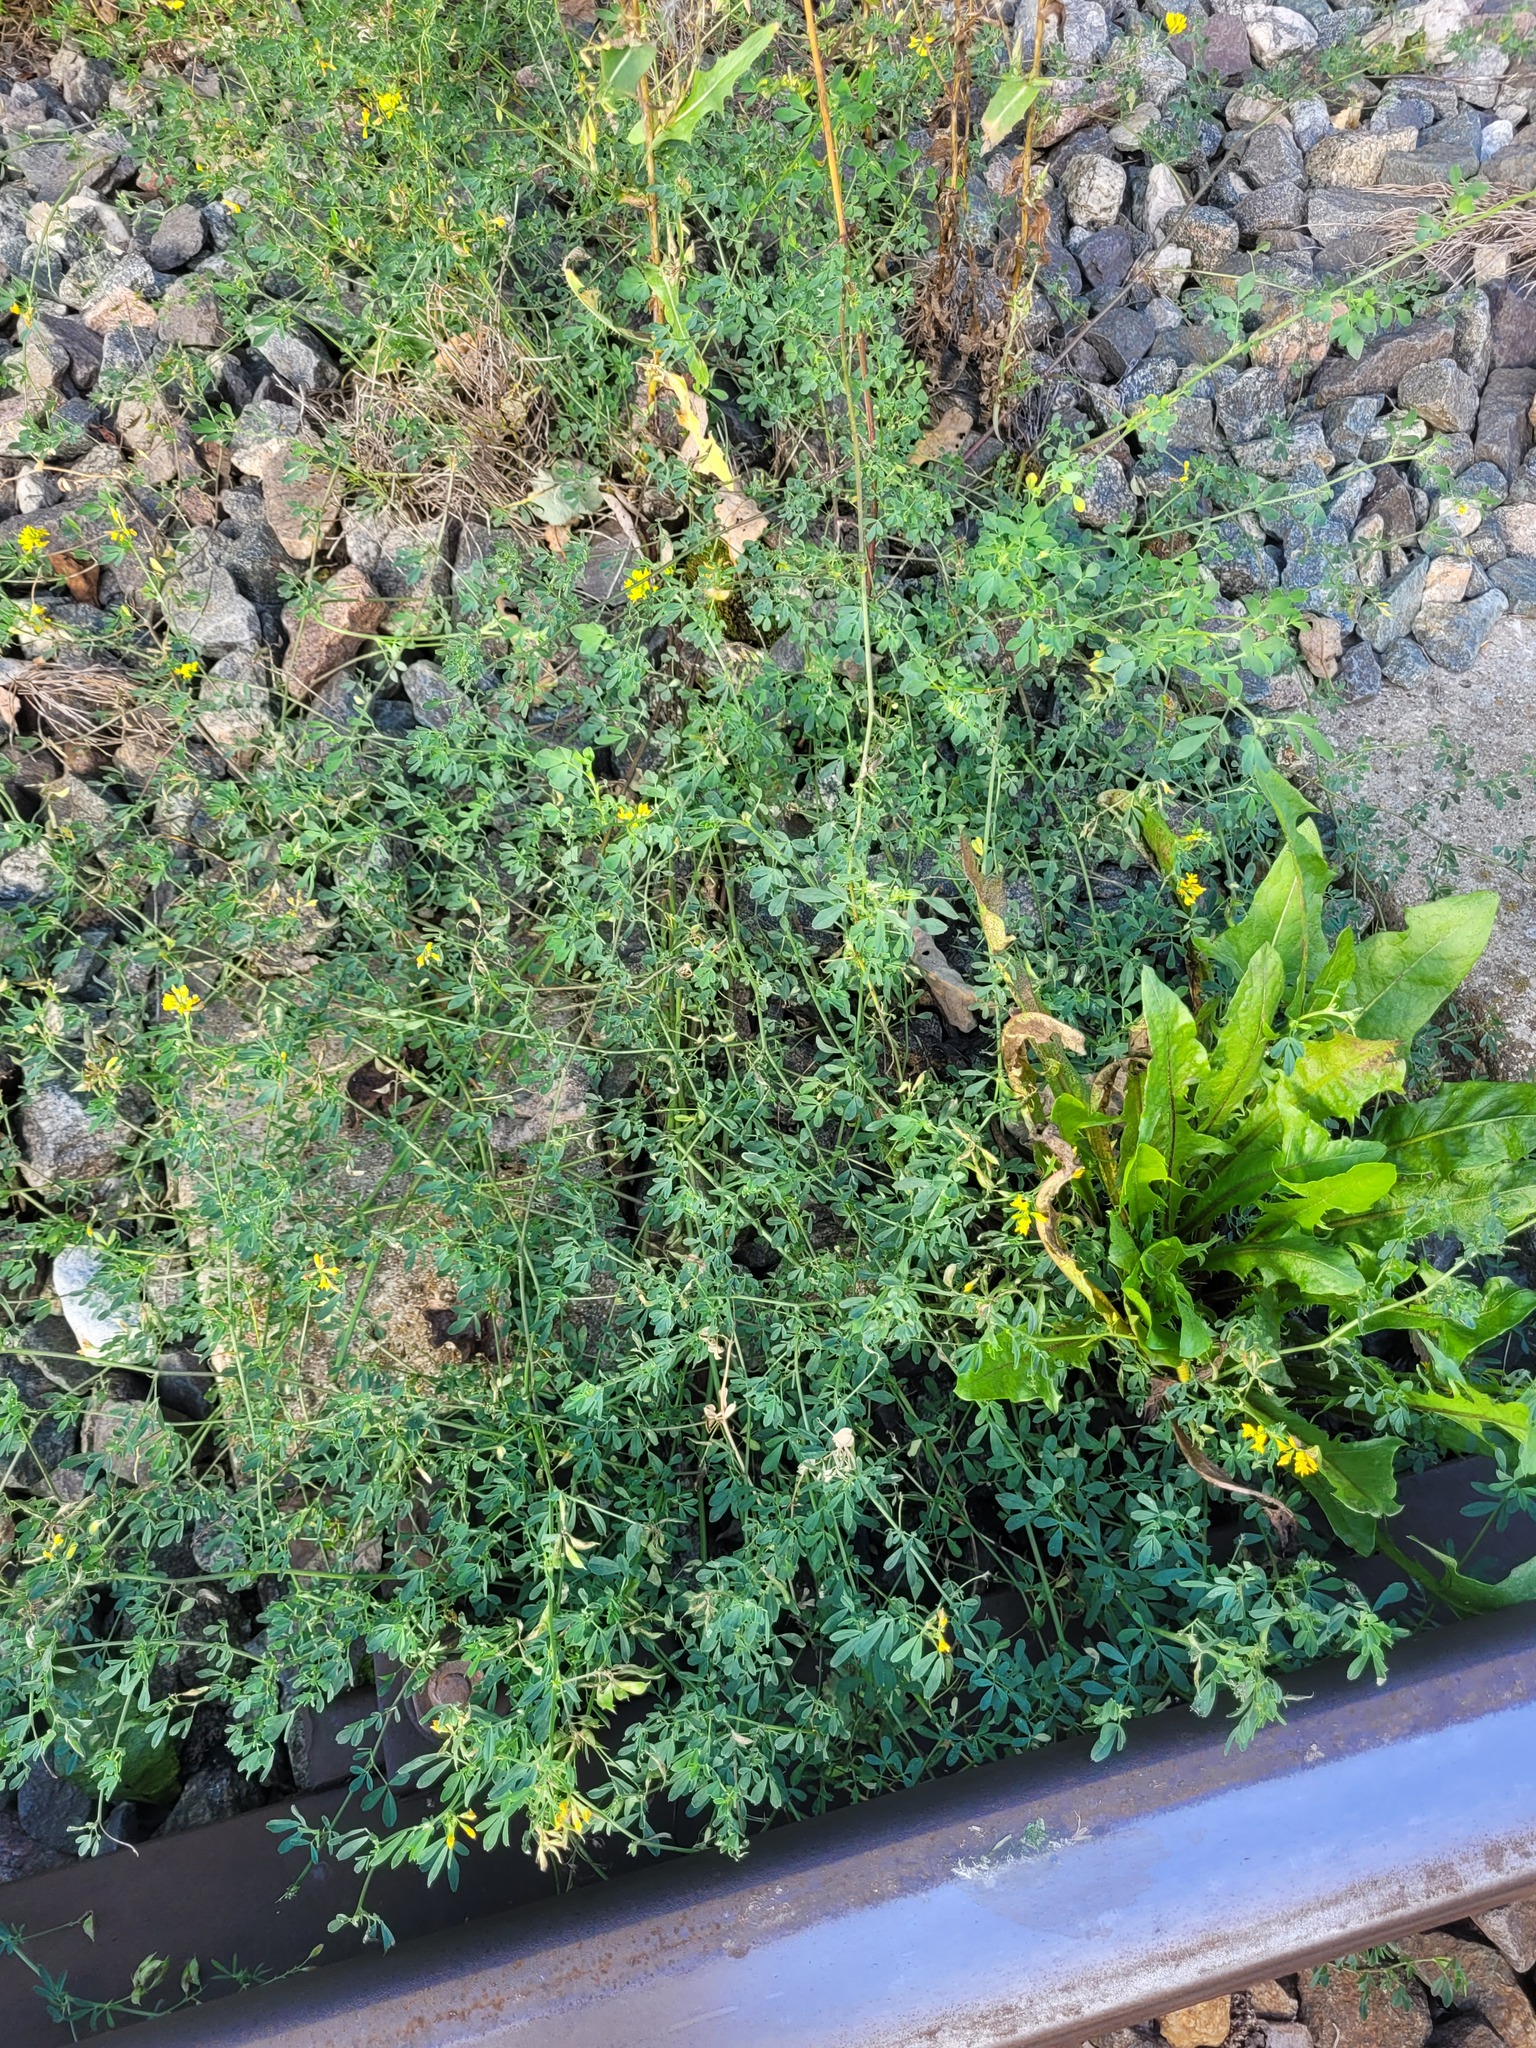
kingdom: Plantae
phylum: Tracheophyta
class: Magnoliopsida
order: Fabales
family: Fabaceae
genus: Medicago
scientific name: Medicago falcata
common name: Sickle medick
